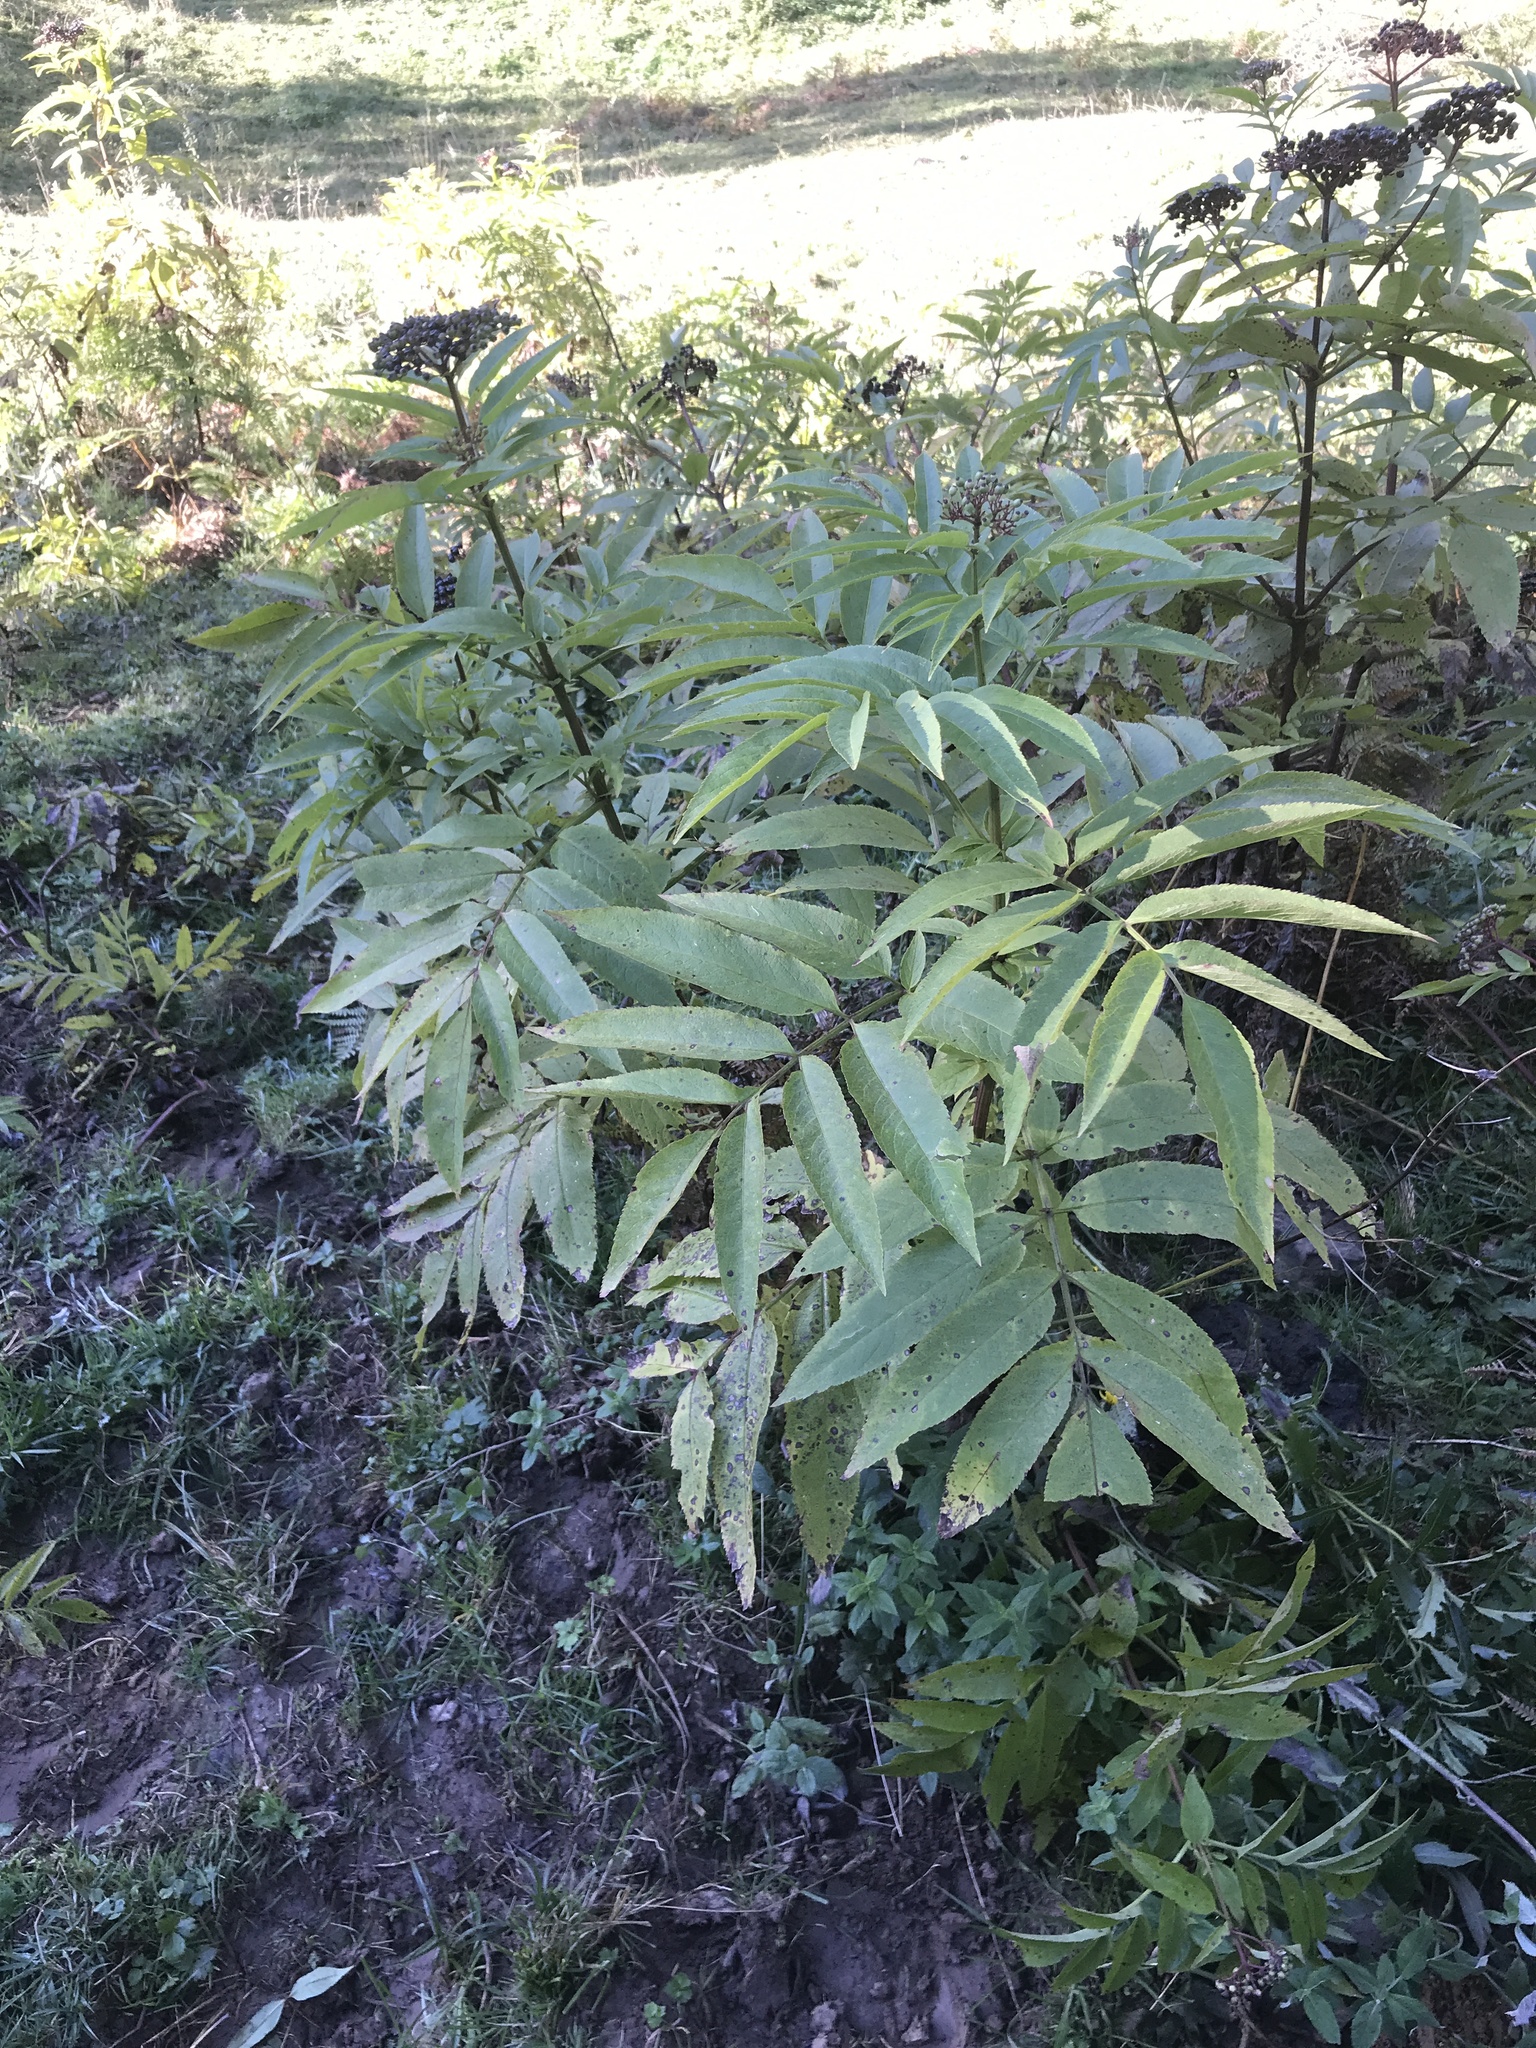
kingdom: Plantae
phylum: Tracheophyta
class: Magnoliopsida
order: Dipsacales
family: Viburnaceae
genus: Sambucus
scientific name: Sambucus ebulus
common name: Dwarf elder
